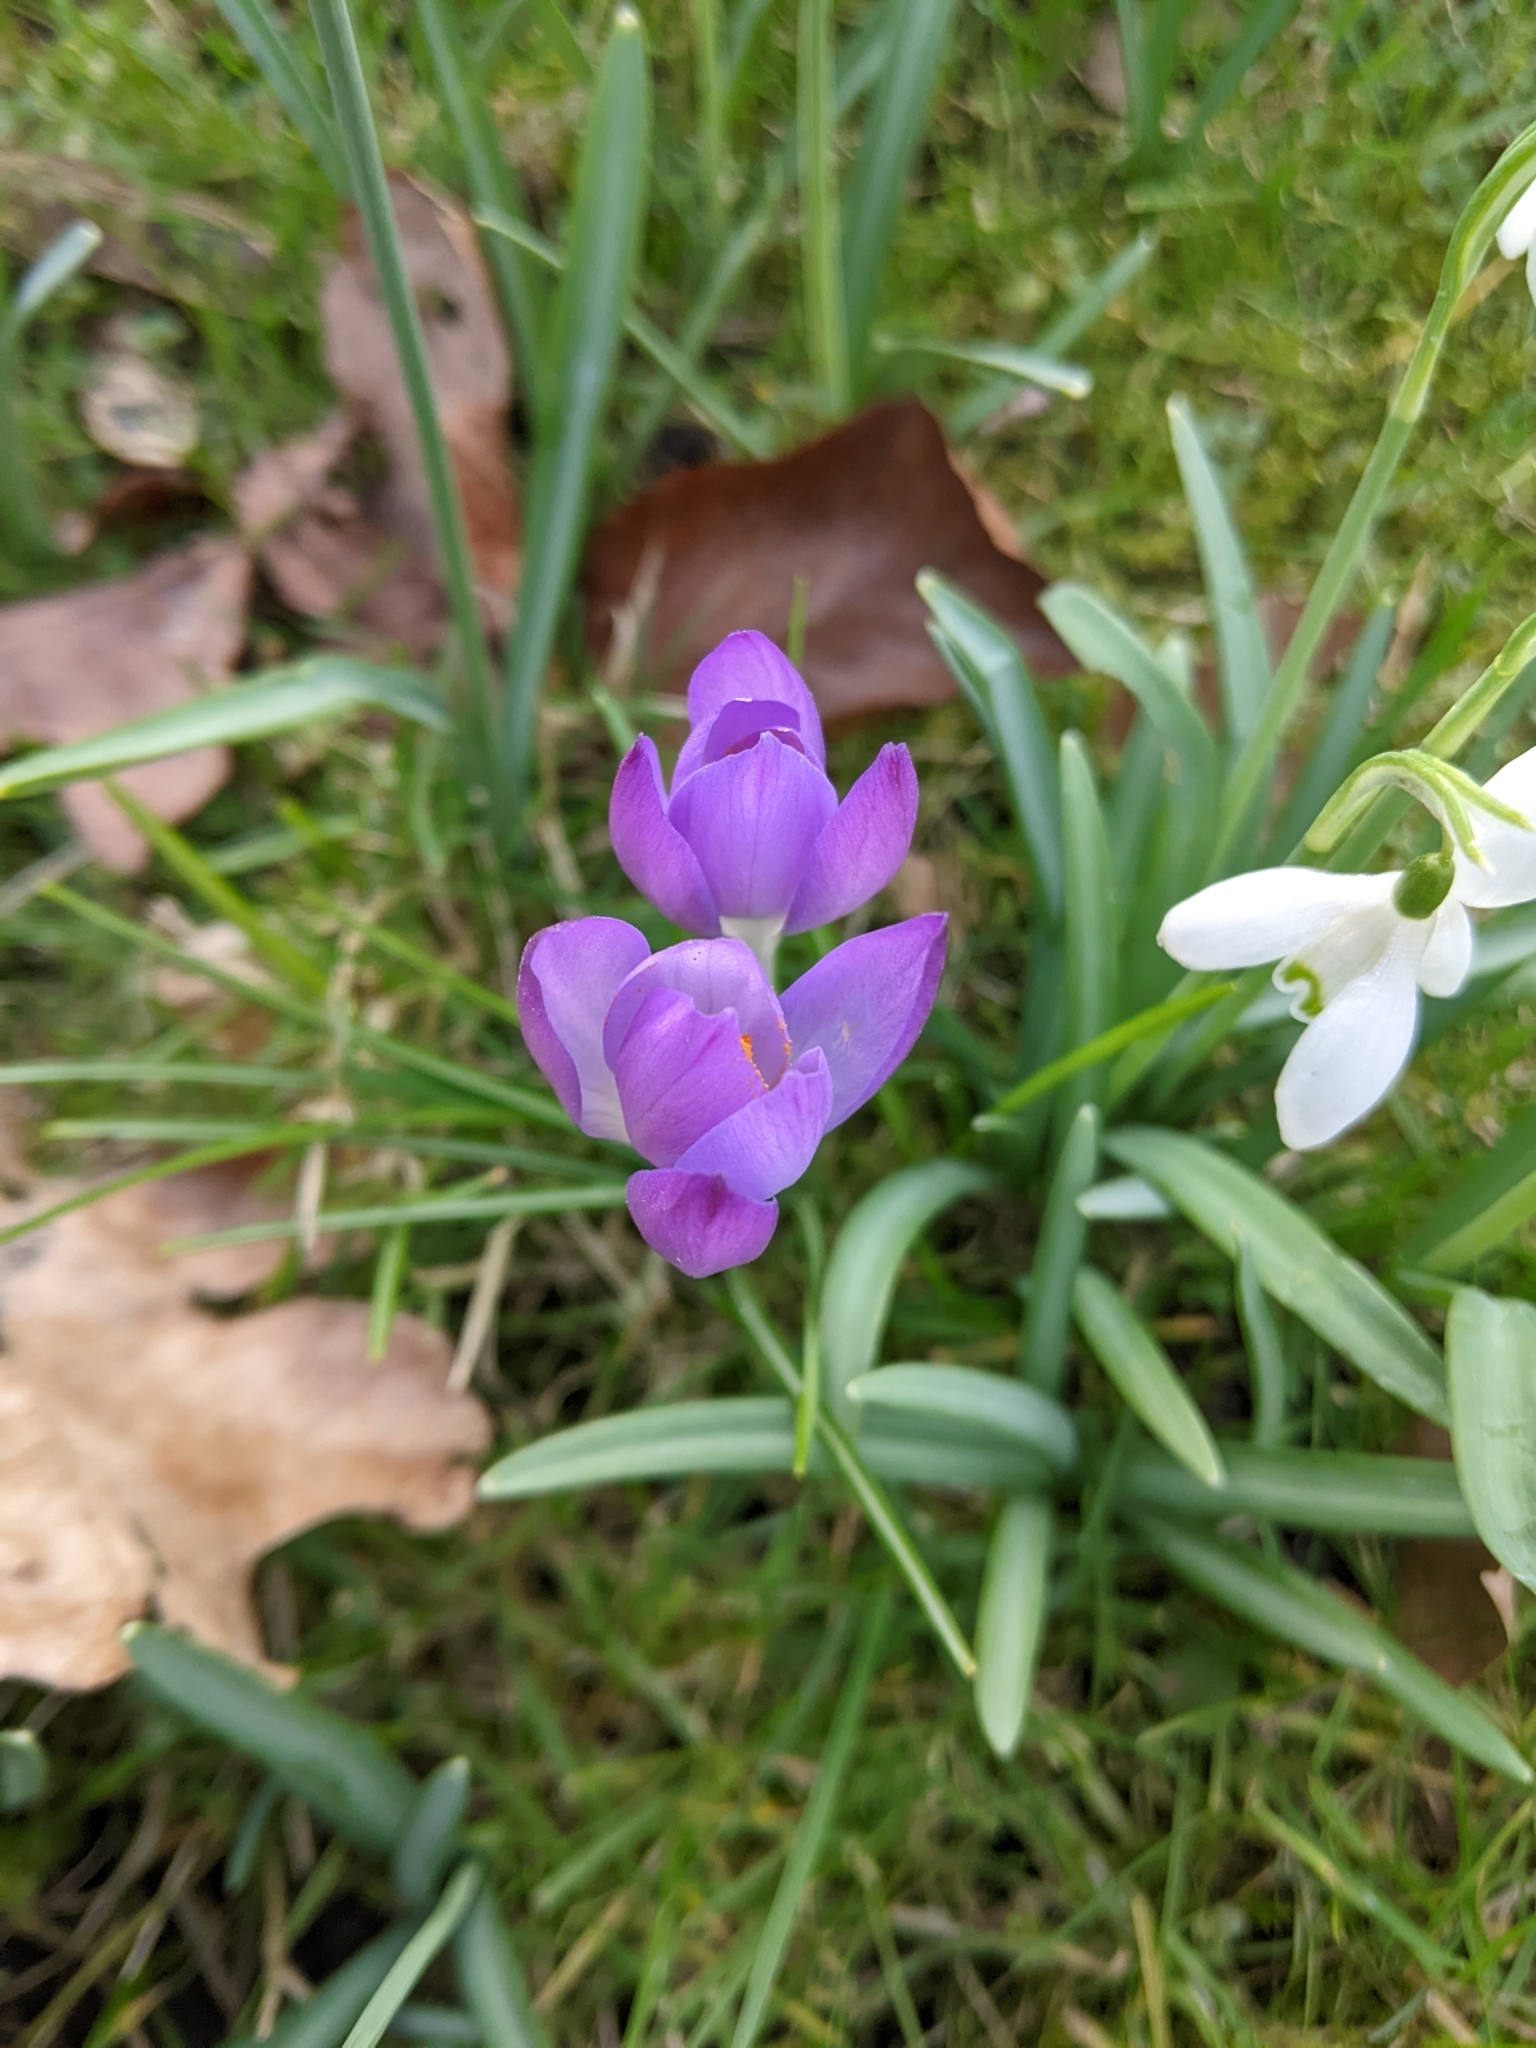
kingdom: Plantae
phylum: Tracheophyta
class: Liliopsida
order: Asparagales
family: Iridaceae
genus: Crocus
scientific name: Crocus tommasinianus
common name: Early crocus
